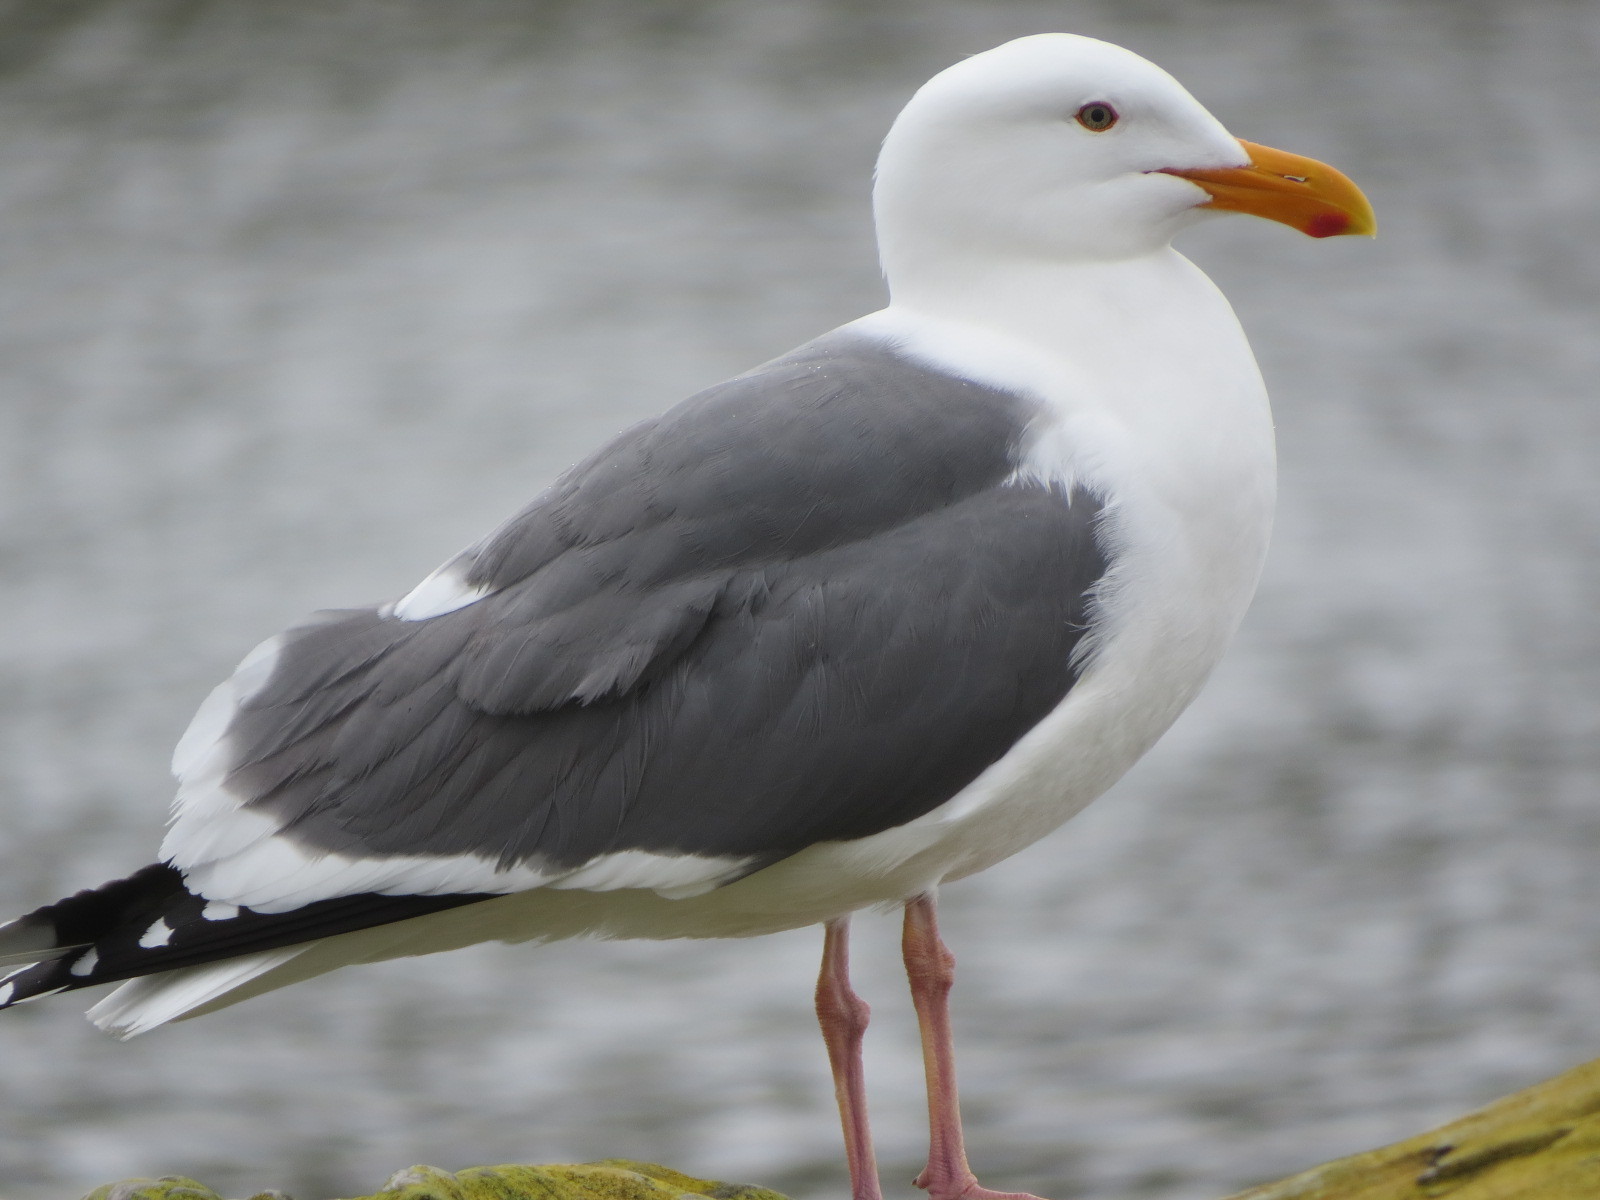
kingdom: Animalia
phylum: Chordata
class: Aves
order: Charadriiformes
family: Laridae
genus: Larus
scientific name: Larus occidentalis
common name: Western gull
